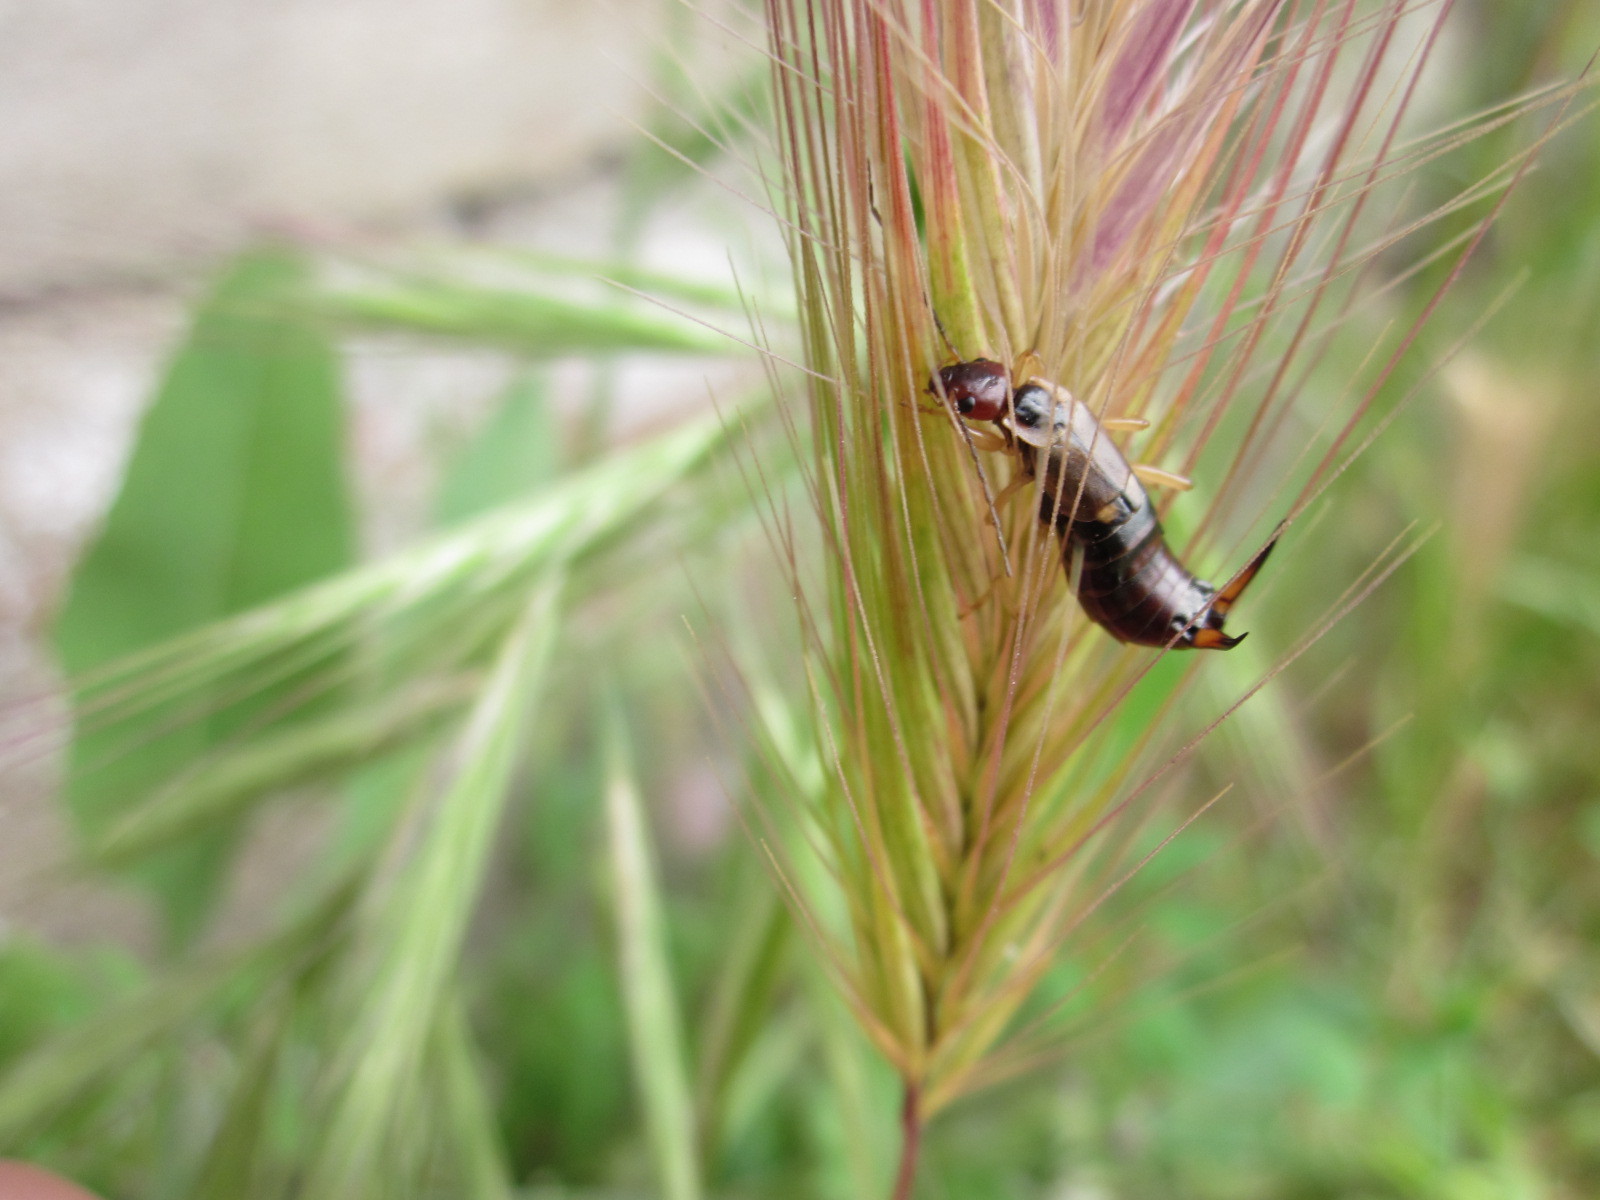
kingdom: Animalia
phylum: Arthropoda
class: Insecta
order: Dermaptera
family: Forficulidae
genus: Forficula
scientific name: Forficula
